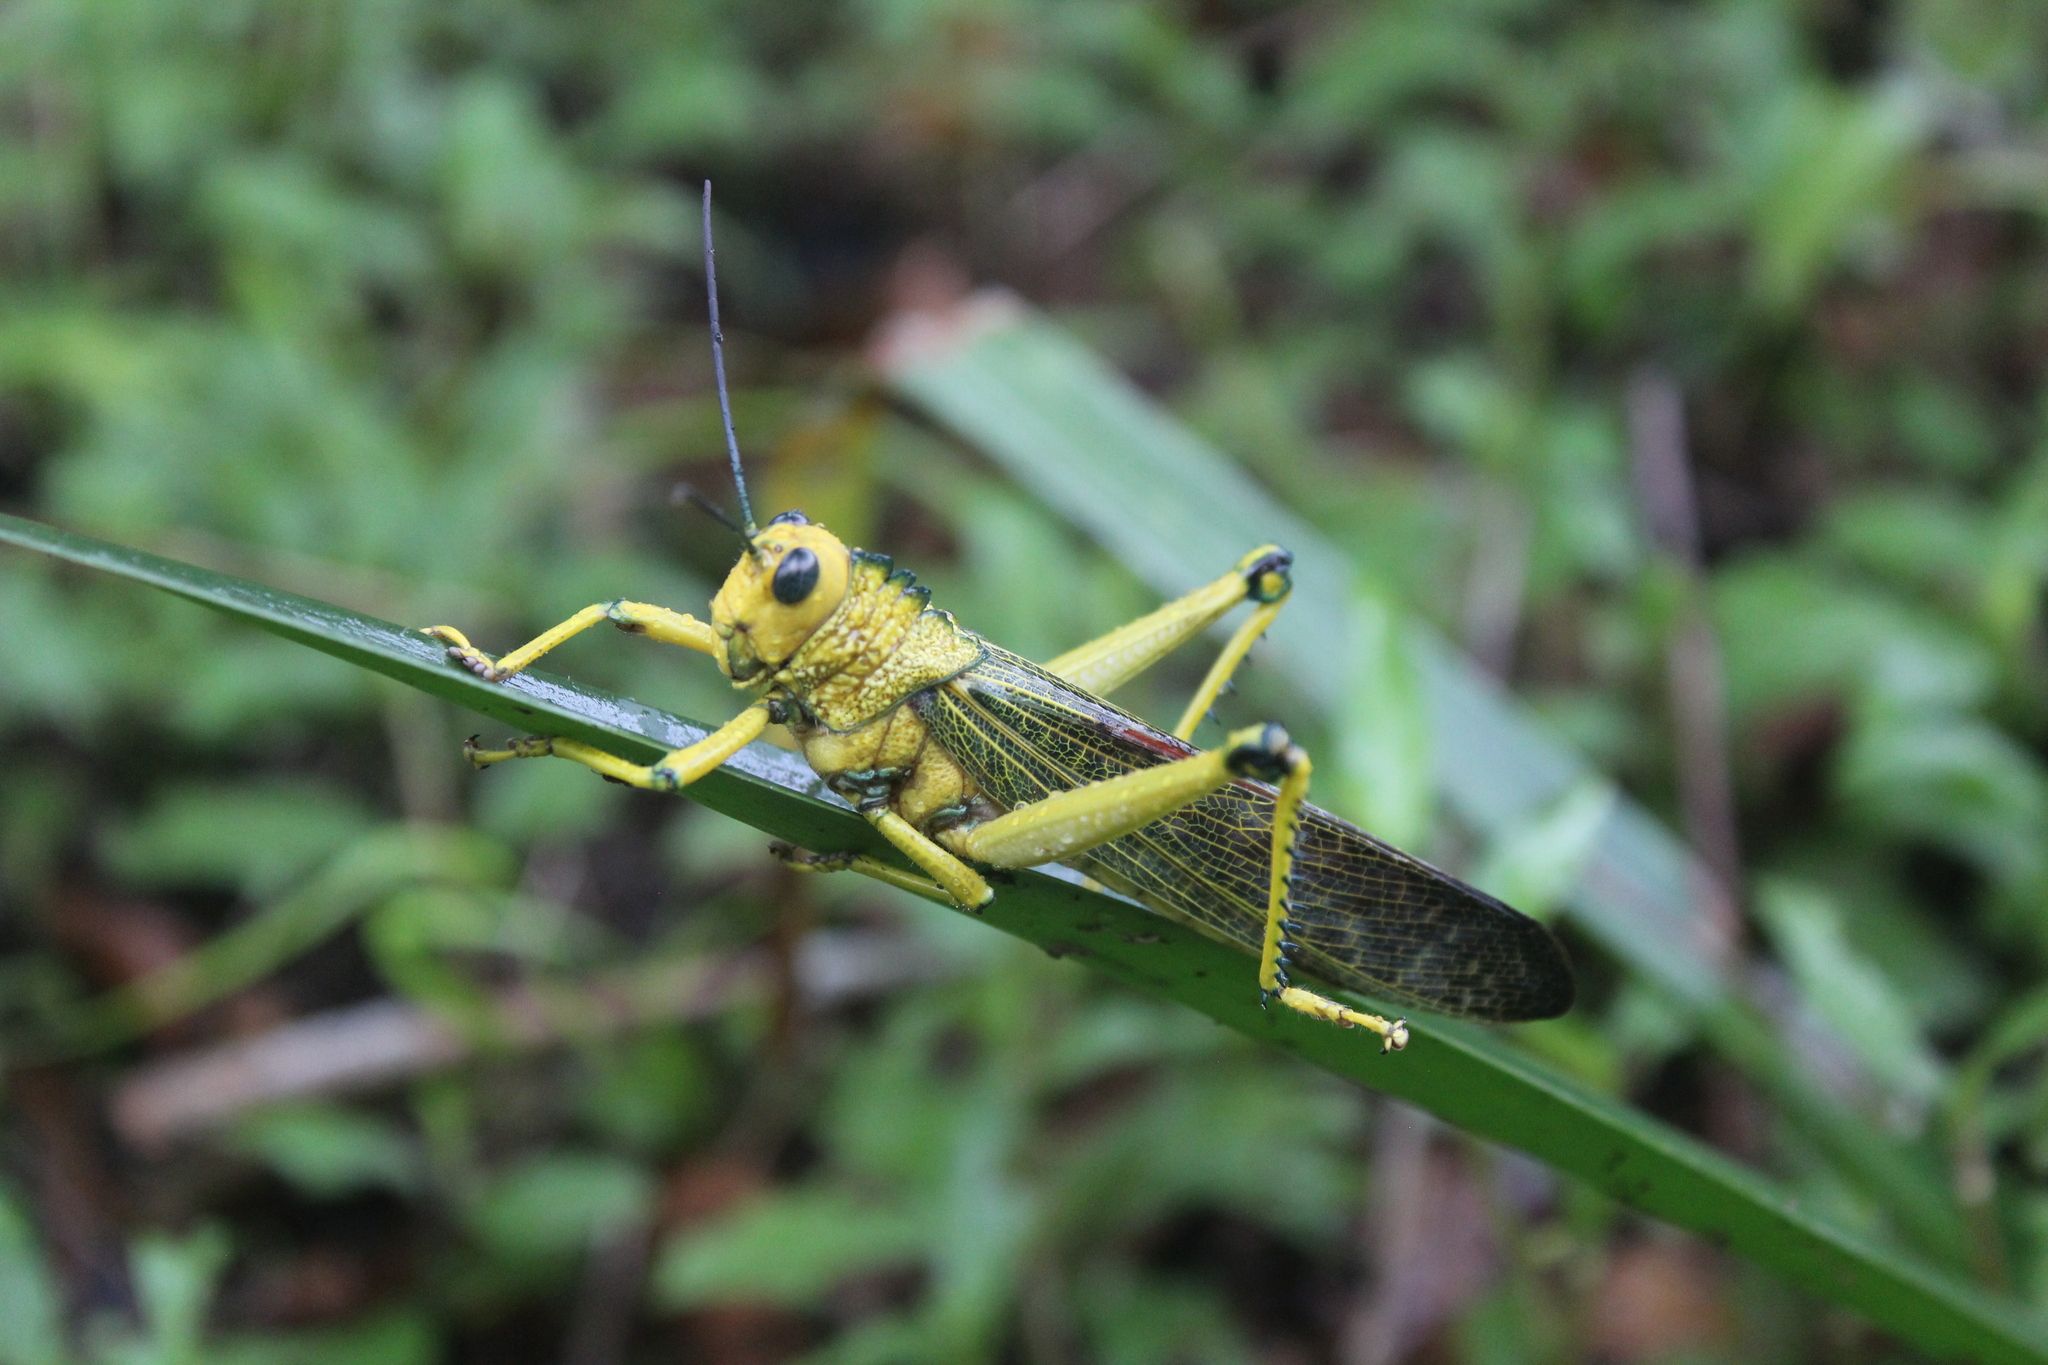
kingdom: Animalia
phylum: Arthropoda
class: Insecta
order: Orthoptera
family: Romaleidae
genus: Tropidacris
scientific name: Tropidacris cristata
